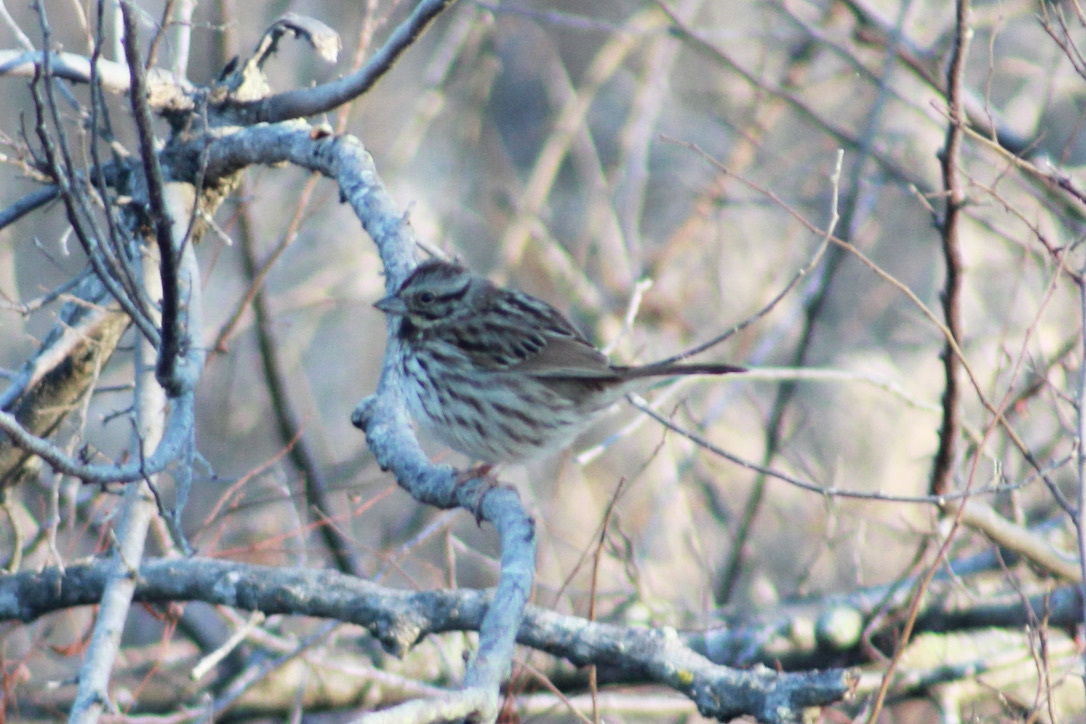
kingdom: Animalia
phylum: Chordata
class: Aves
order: Passeriformes
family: Passerellidae
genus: Melospiza
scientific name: Melospiza melodia
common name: Song sparrow
